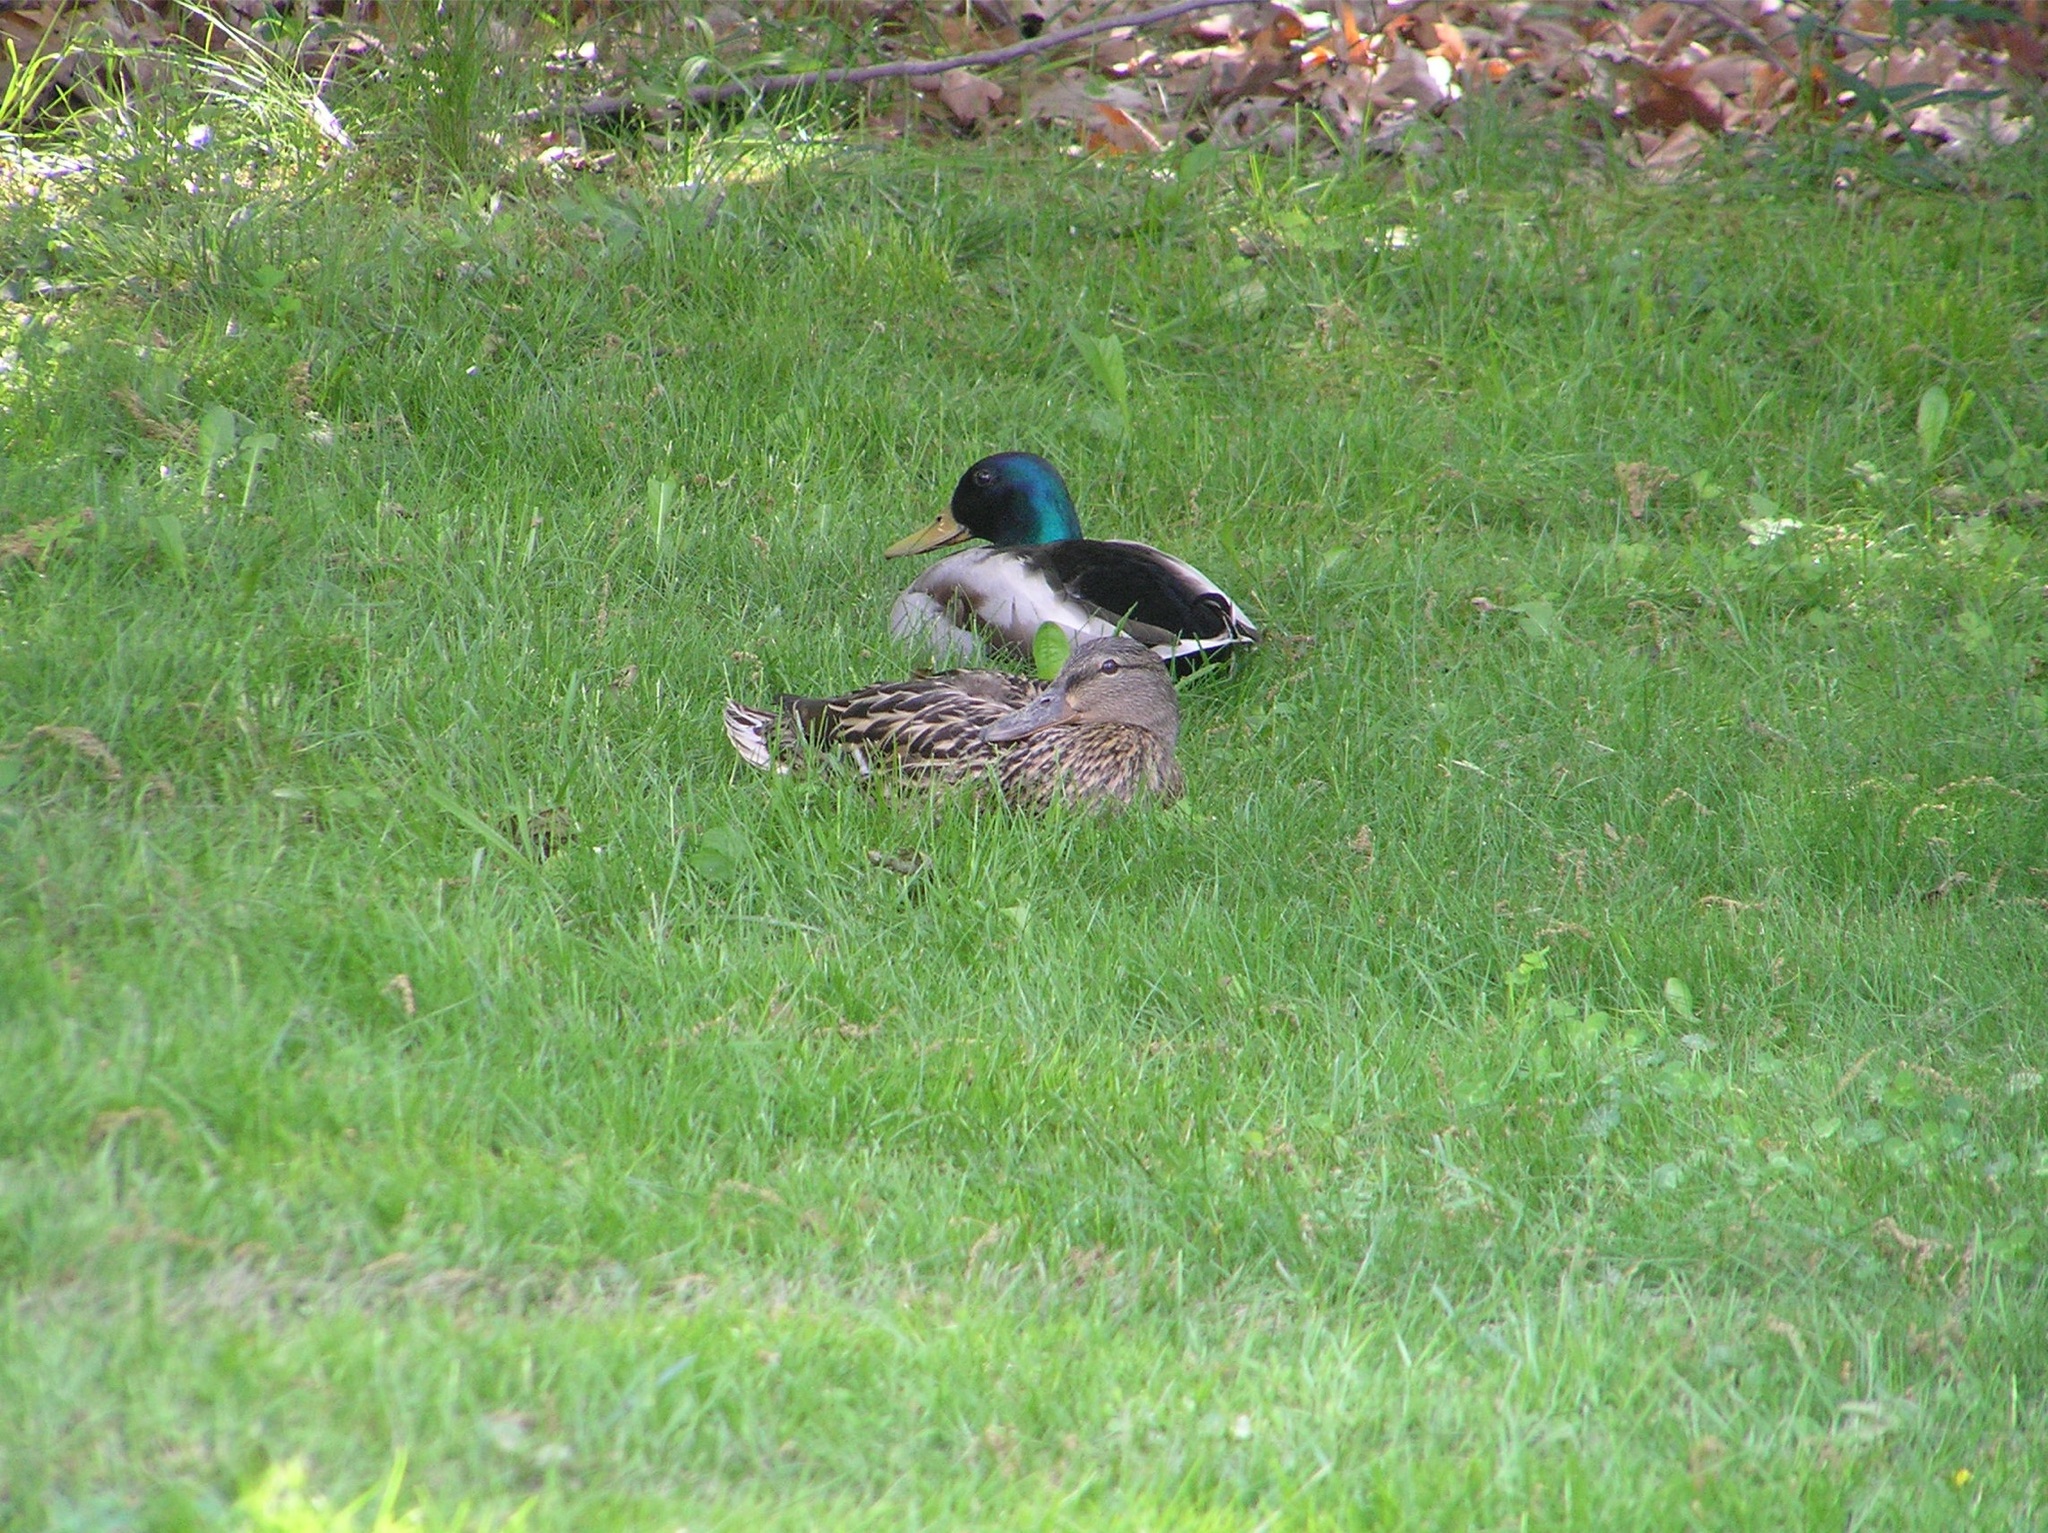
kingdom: Animalia
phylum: Chordata
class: Aves
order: Anseriformes
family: Anatidae
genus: Anas
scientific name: Anas platyrhynchos
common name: Mallard
